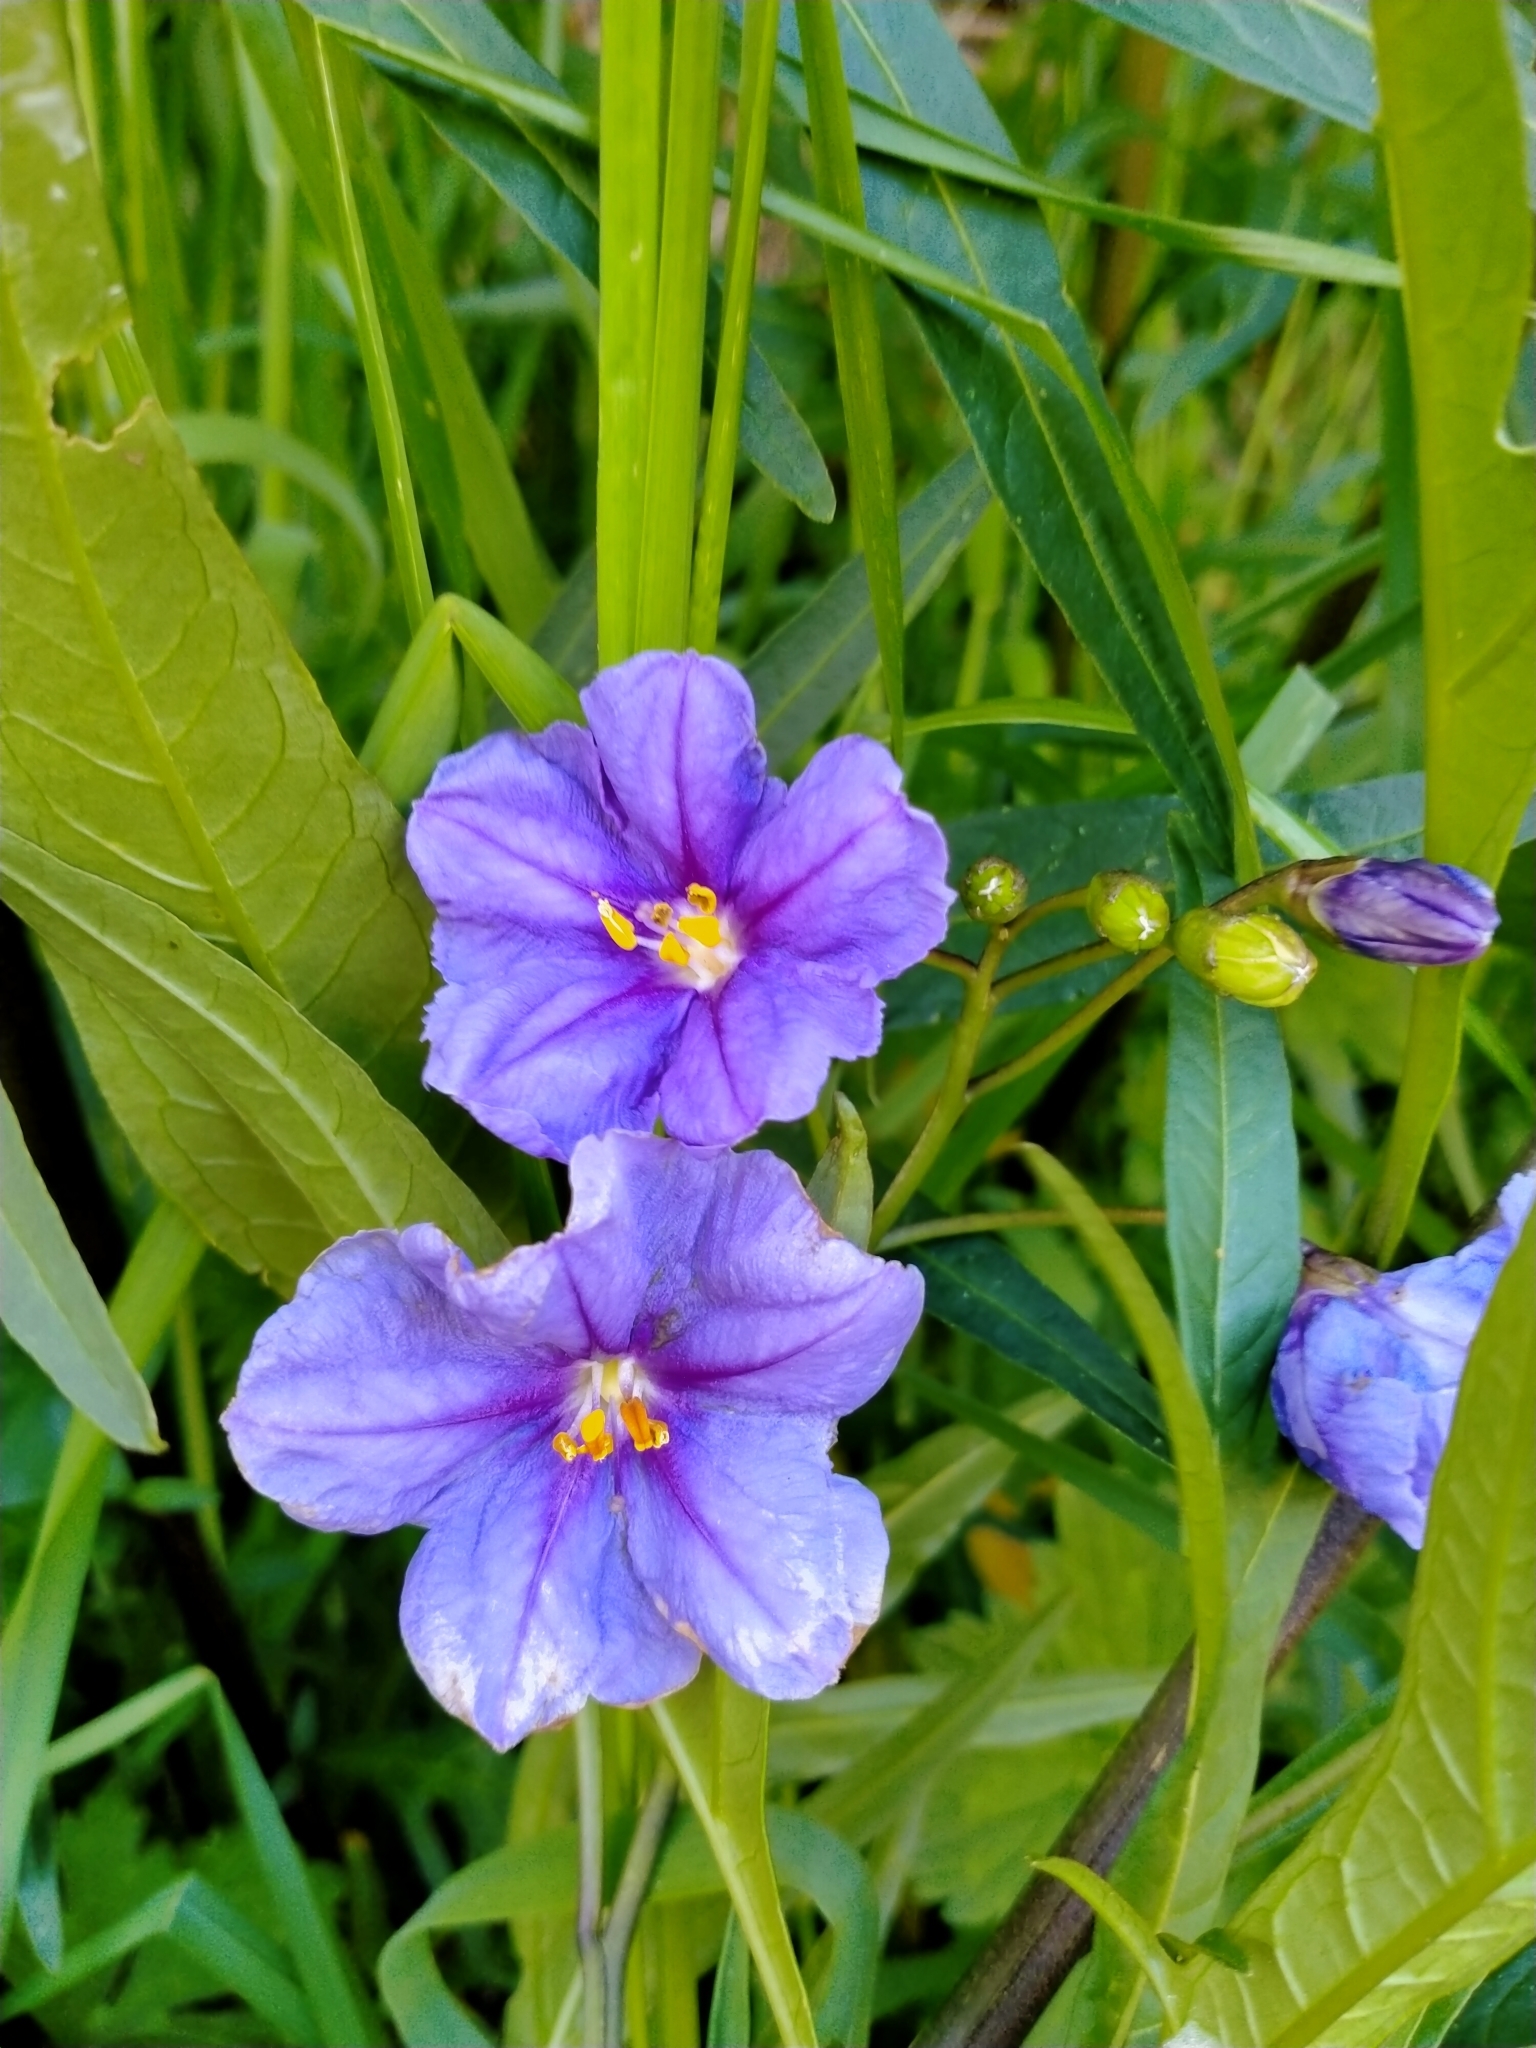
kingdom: Plantae
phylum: Tracheophyta
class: Magnoliopsida
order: Solanales
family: Solanaceae
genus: Solanum
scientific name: Solanum laciniatum
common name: Kangaroo-apple
